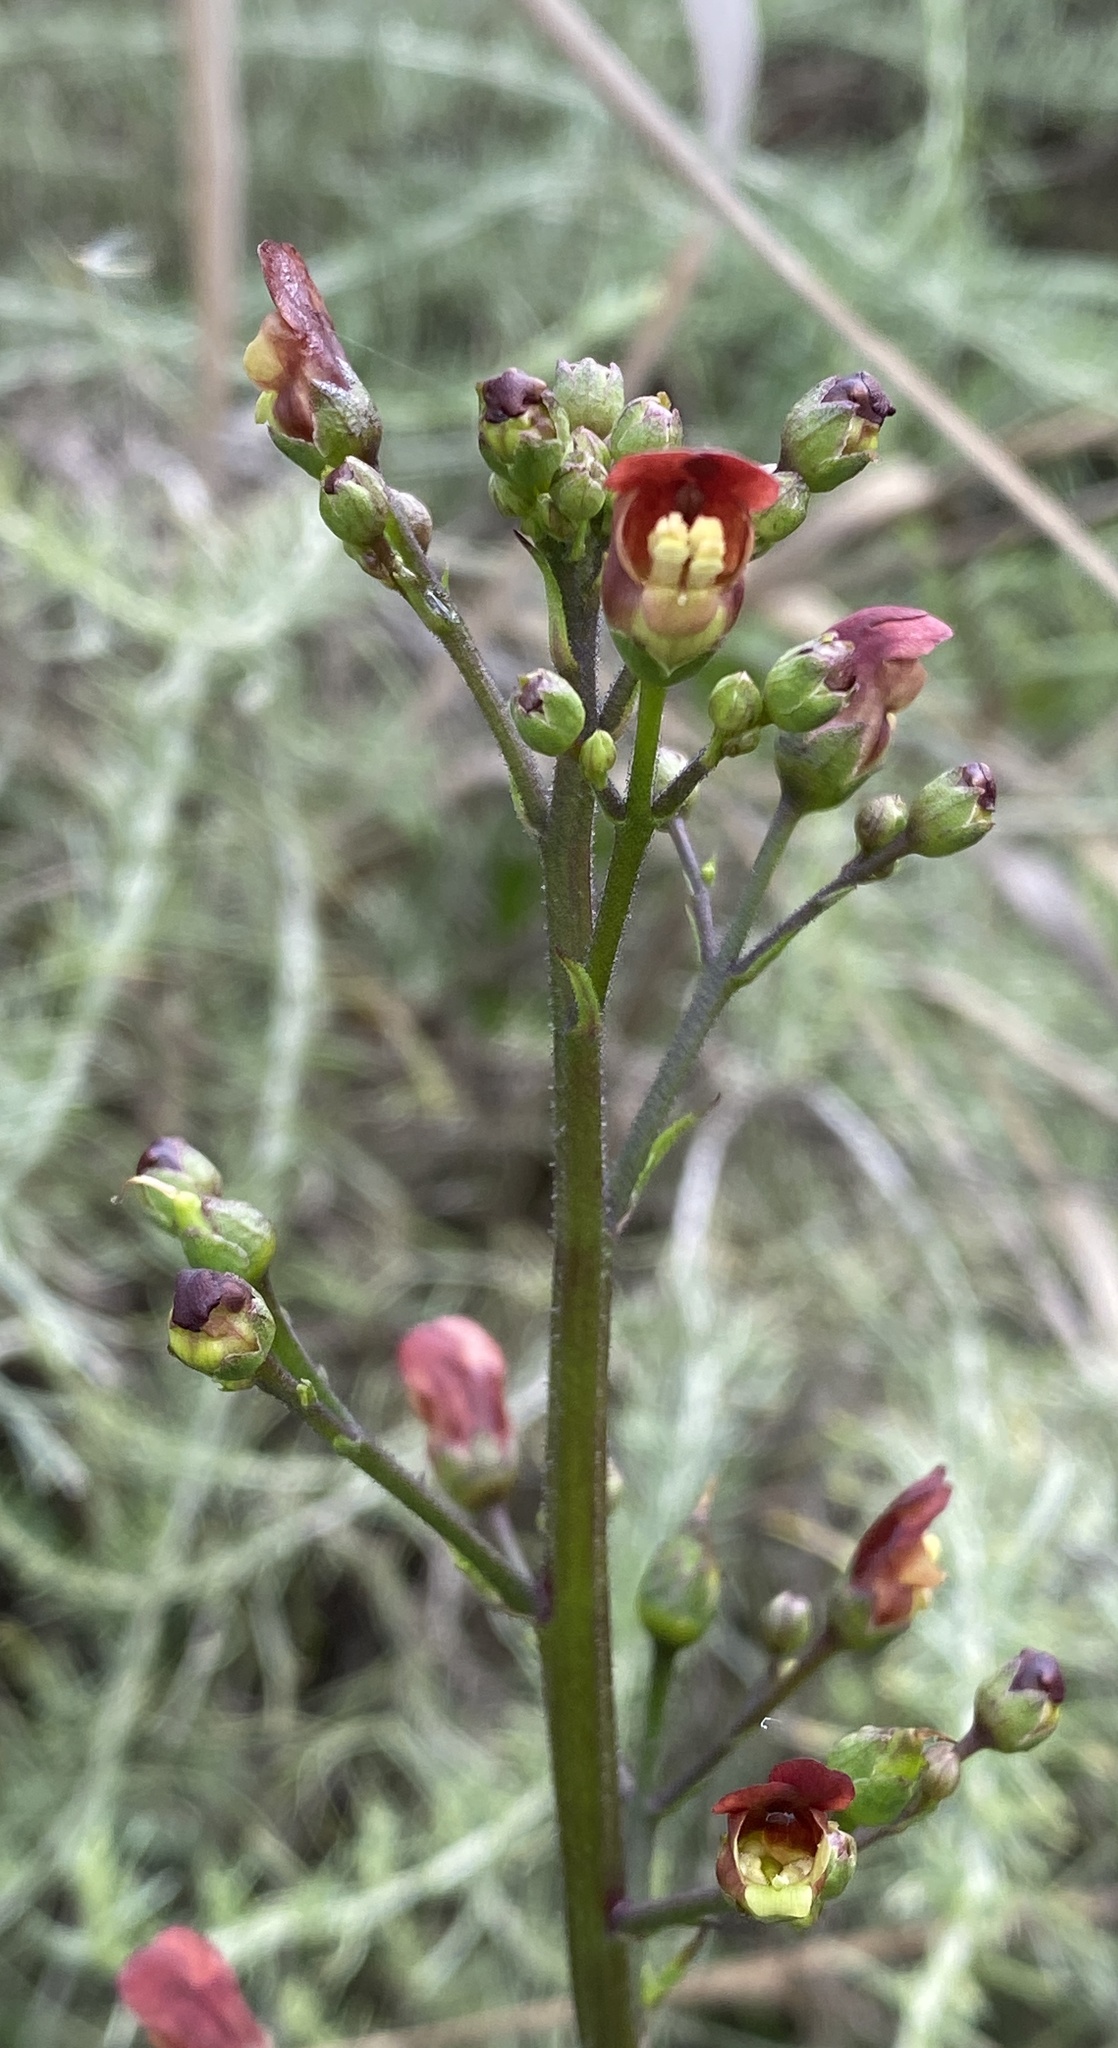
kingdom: Plantae
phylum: Tracheophyta
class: Magnoliopsida
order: Lamiales
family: Scrophulariaceae
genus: Scrophularia
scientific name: Scrophularia californica
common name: California figwort
